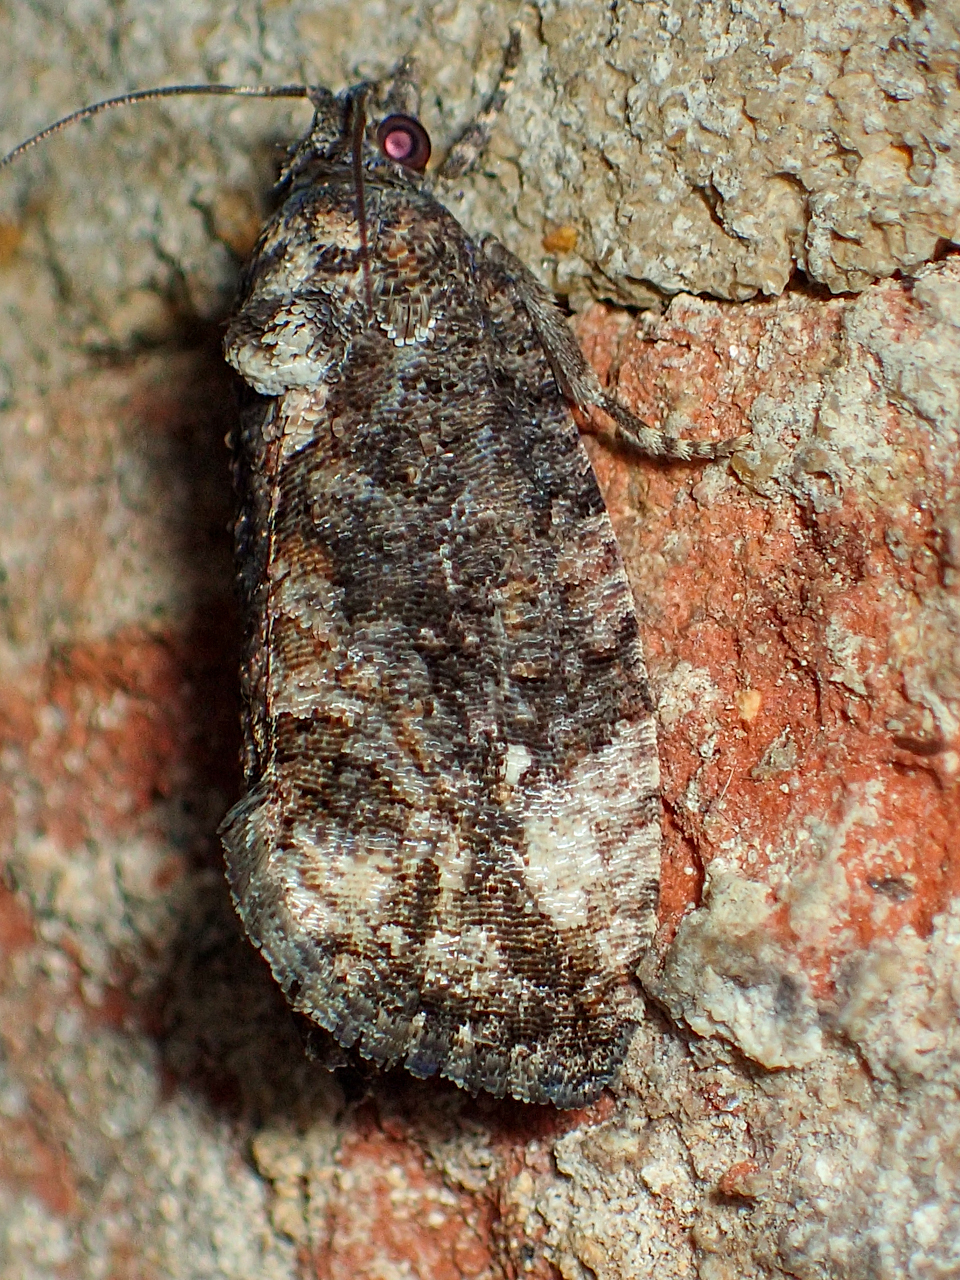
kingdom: Animalia
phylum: Arthropoda
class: Insecta
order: Lepidoptera
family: Tortricidae
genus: Gymnandrosoma
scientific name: Gymnandrosoma punctidiscanum
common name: Dotted ecdytolopha moth
